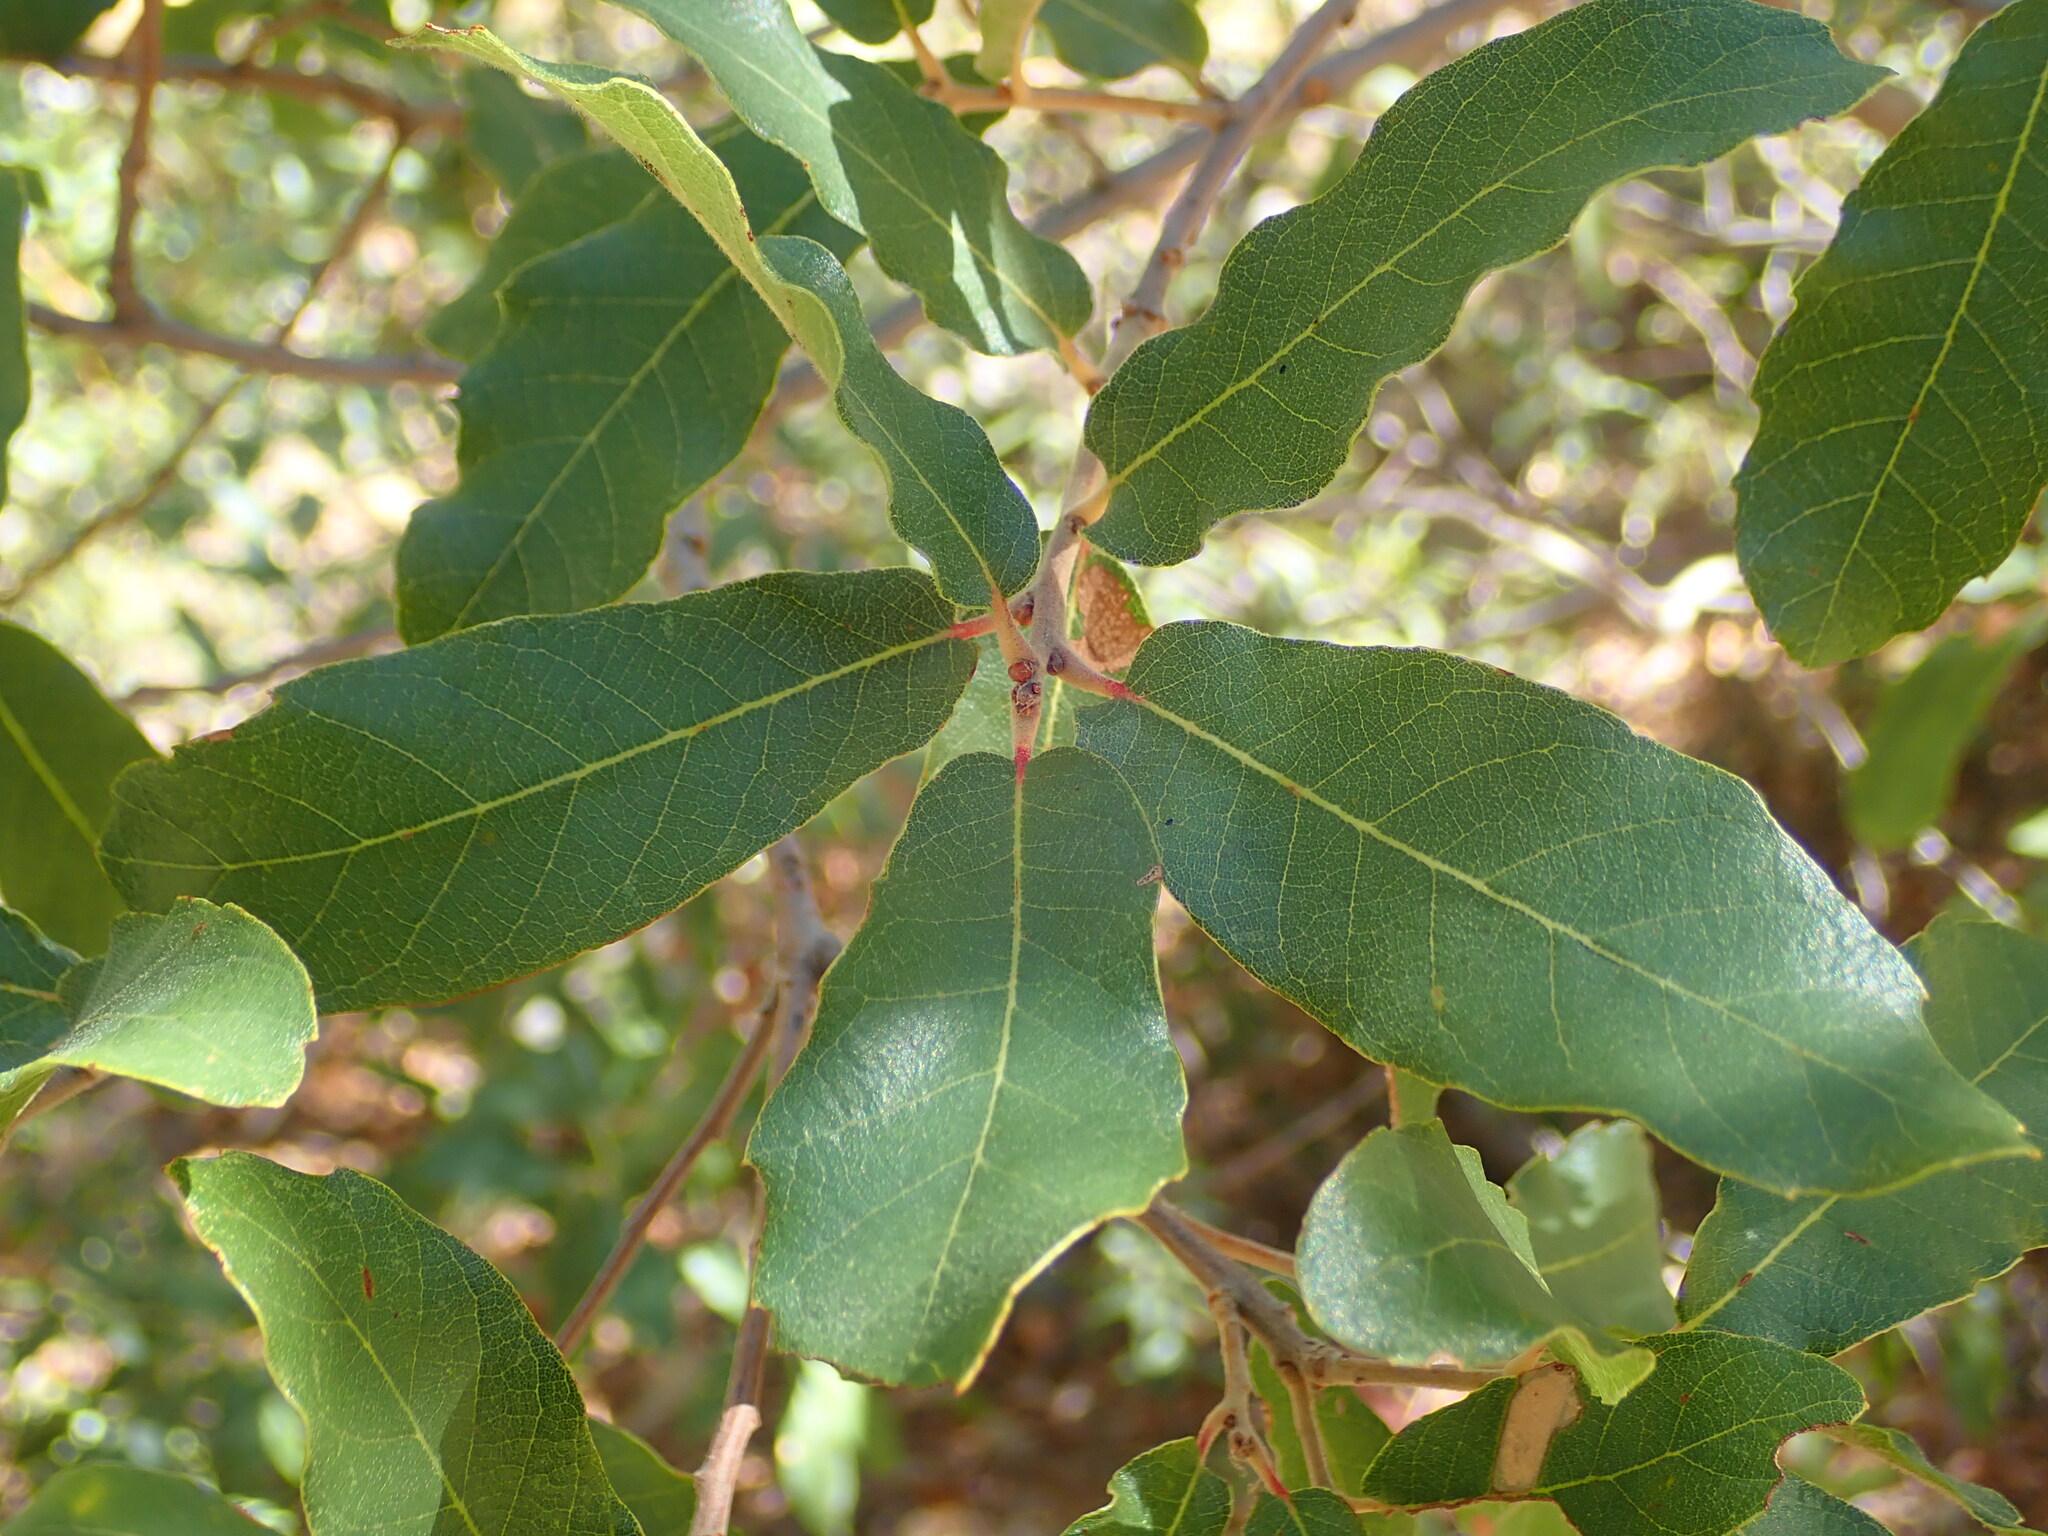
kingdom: Plantae
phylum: Tracheophyta
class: Magnoliopsida
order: Fagales
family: Fagaceae
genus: Quercus
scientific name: Quercus arizonica
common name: Arizona white oak
